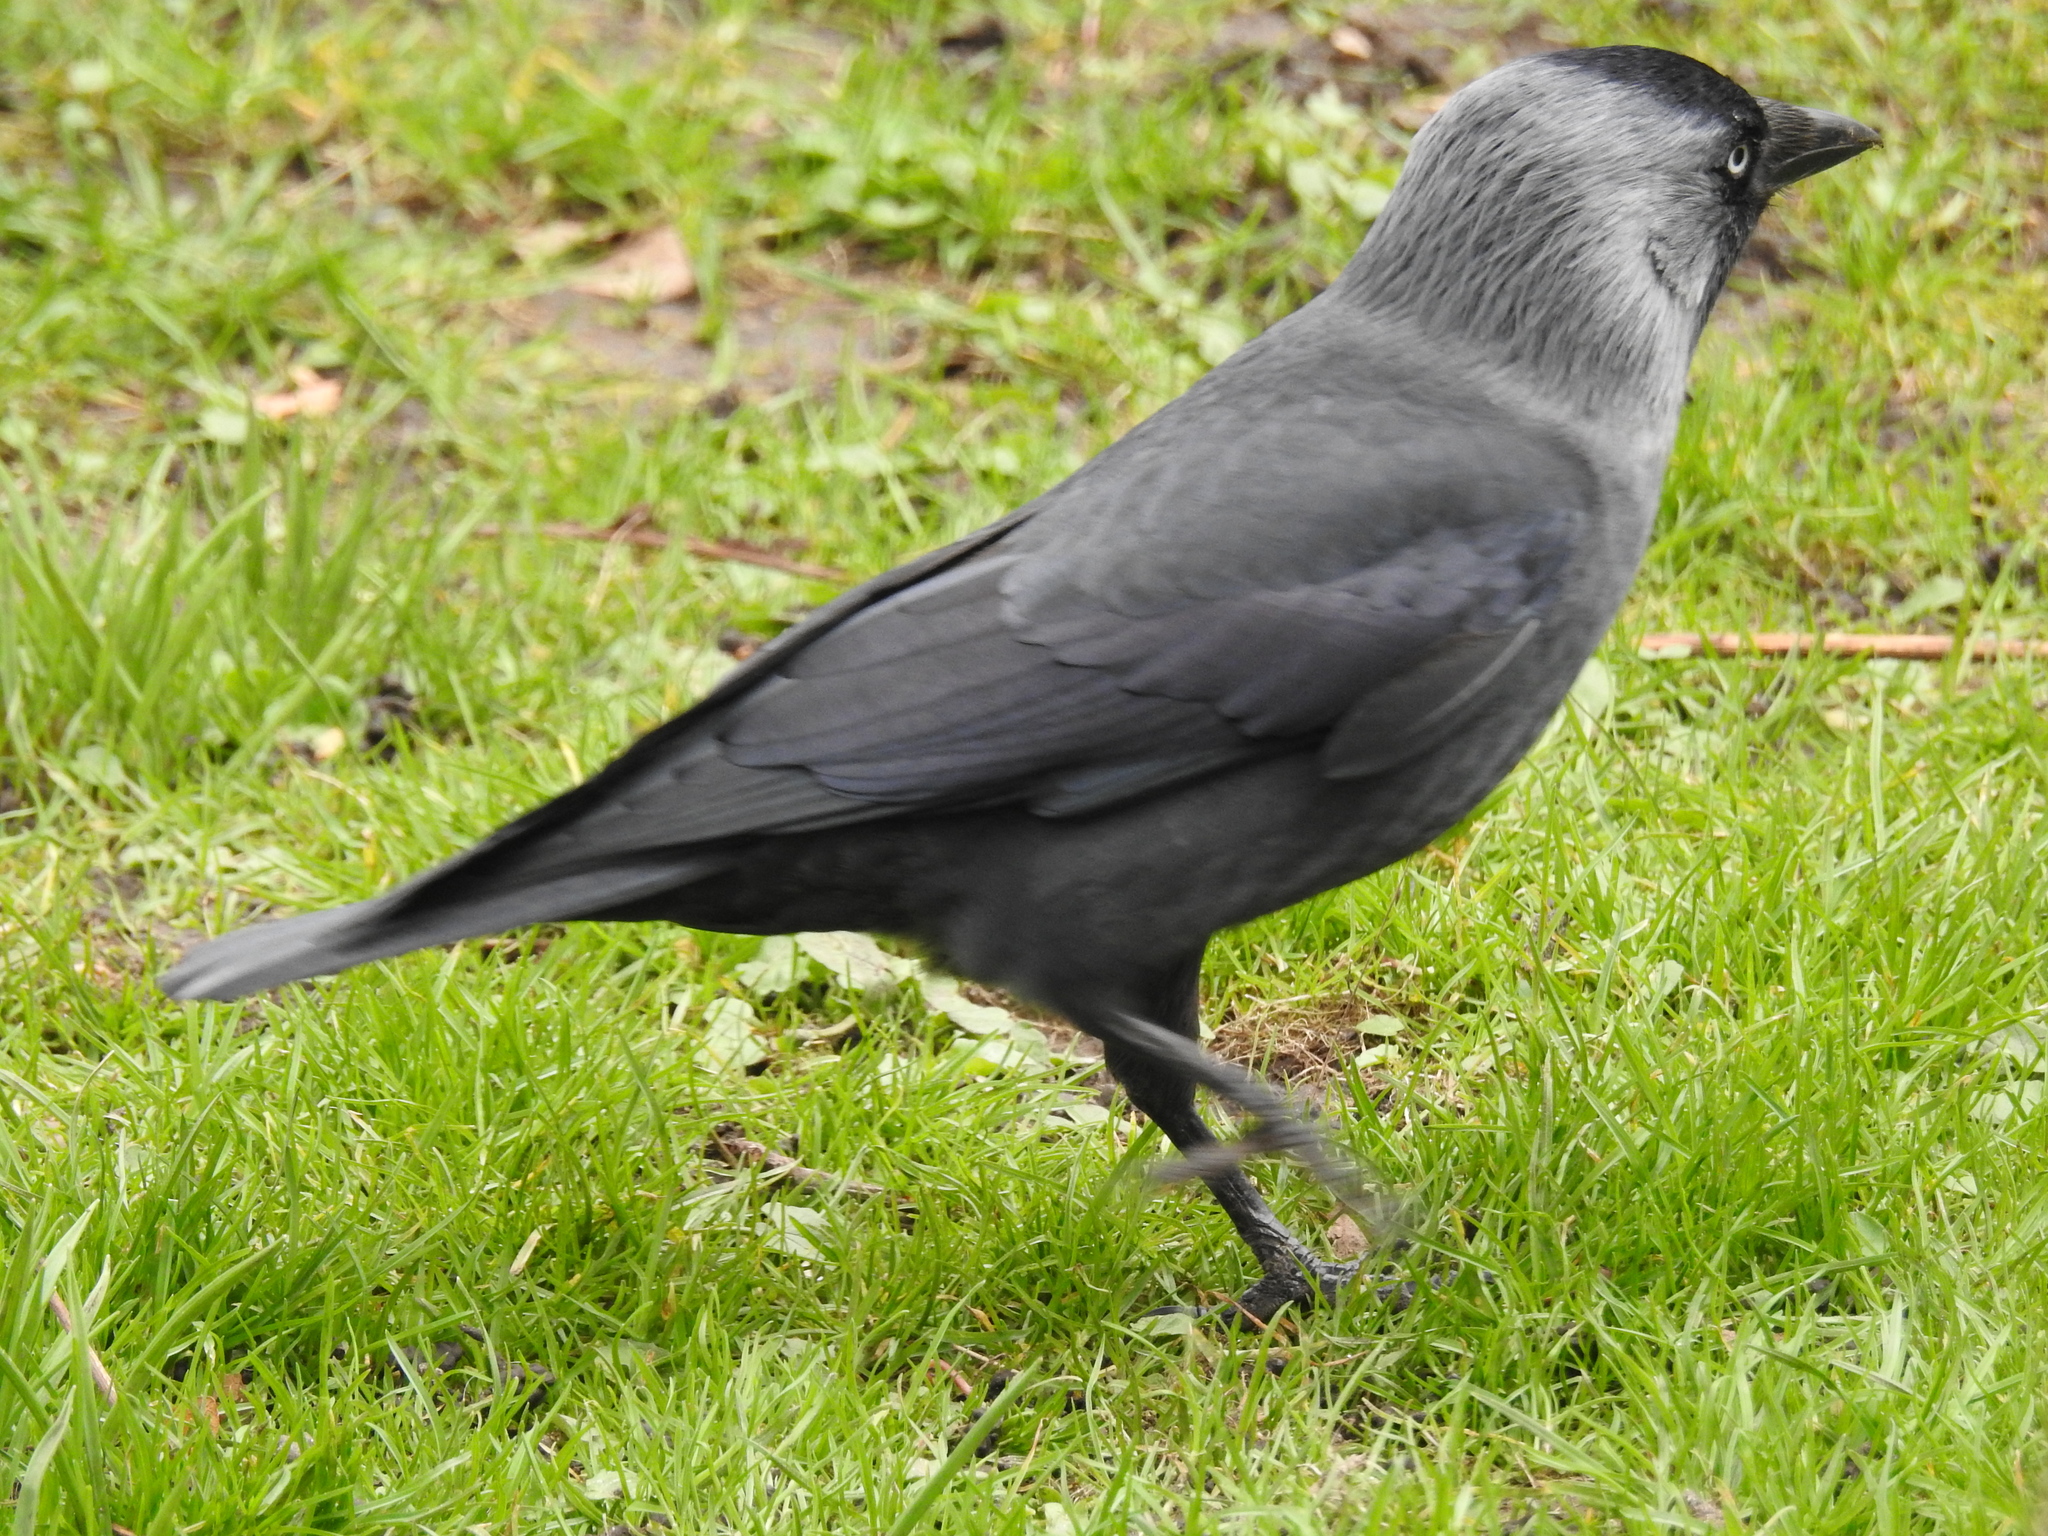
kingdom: Animalia
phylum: Chordata
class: Aves
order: Passeriformes
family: Corvidae
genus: Coloeus
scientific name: Coloeus monedula
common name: Western jackdaw
